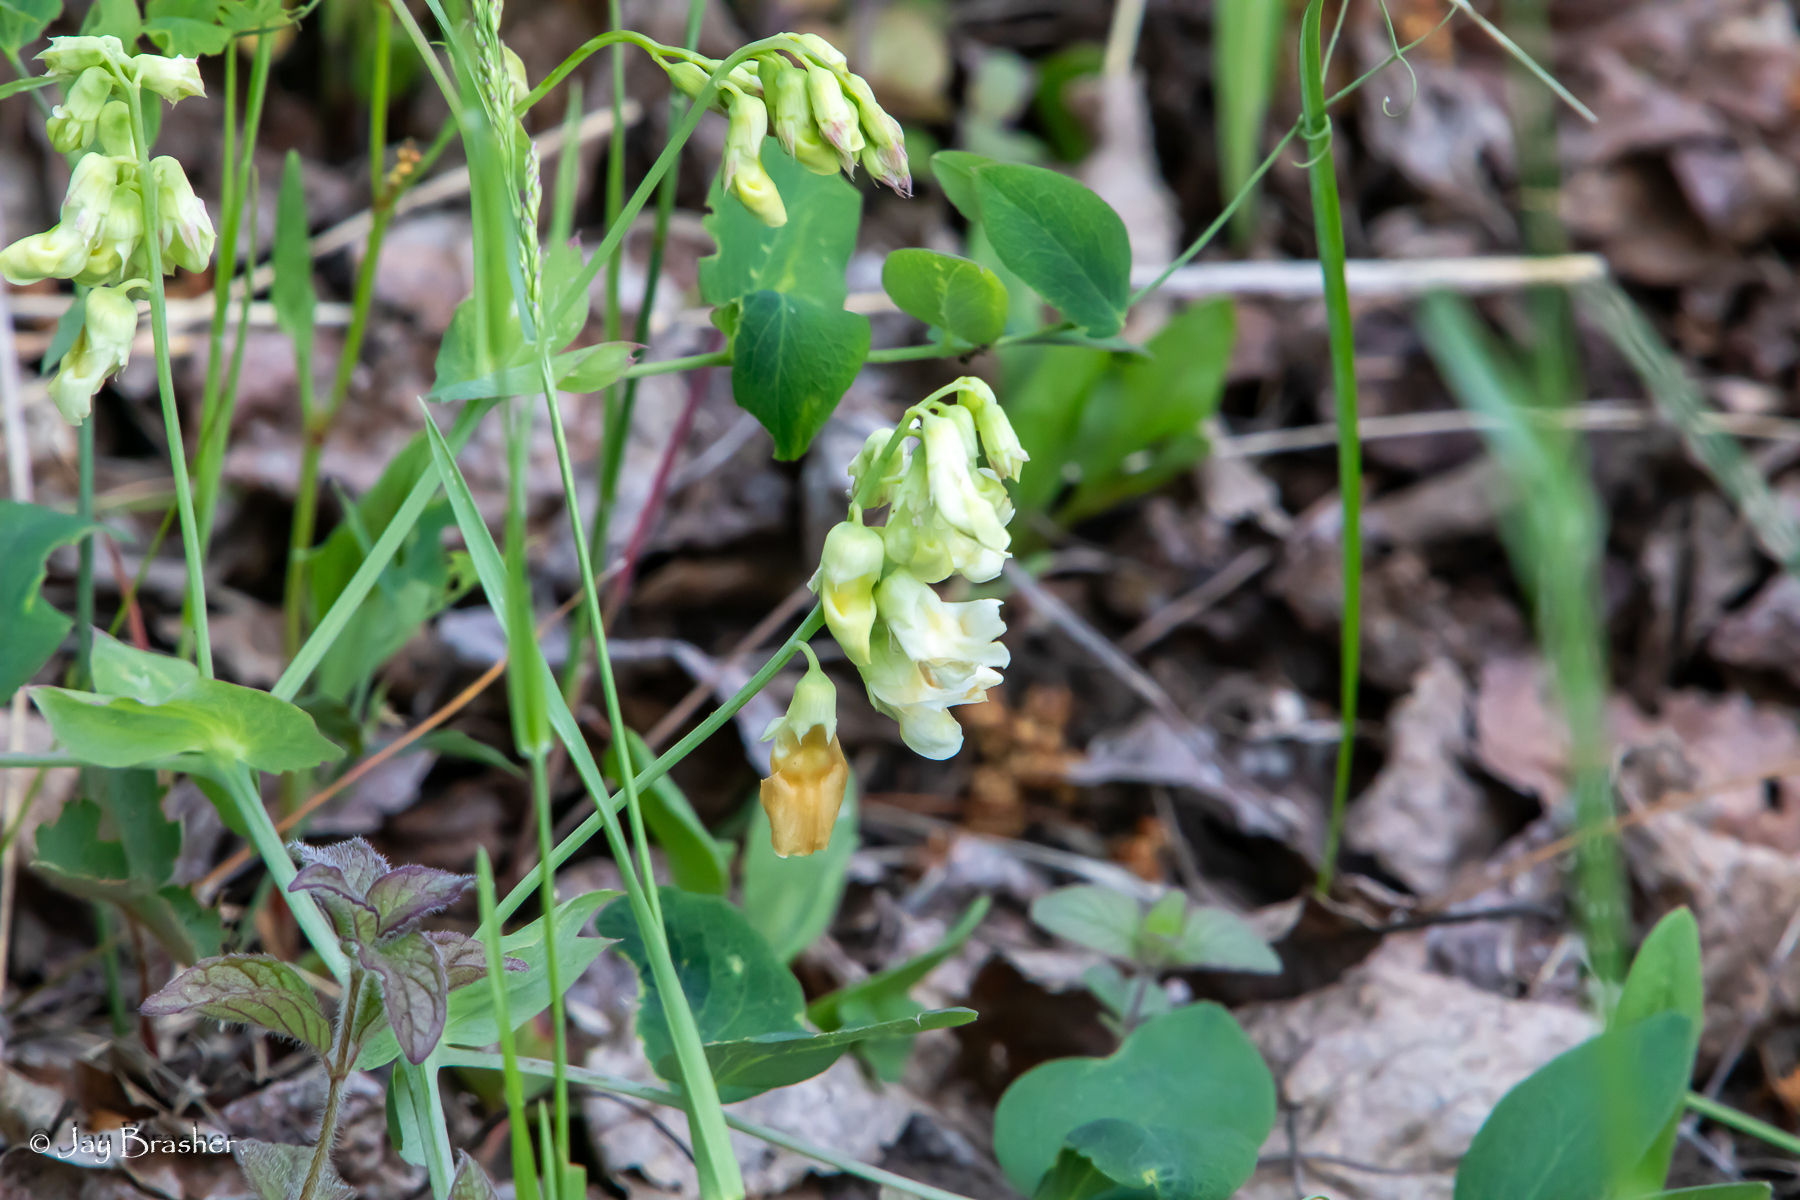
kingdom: Plantae
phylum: Tracheophyta
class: Magnoliopsida
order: Fabales
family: Fabaceae
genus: Lathyrus
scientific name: Lathyrus ochroleucus
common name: Pale vetchling
